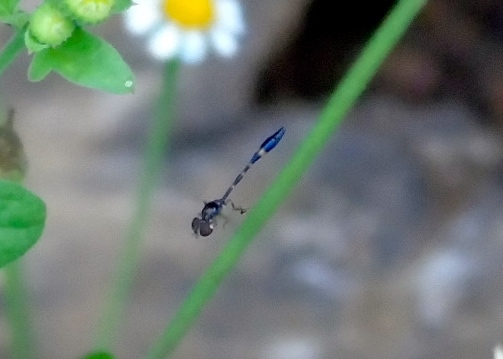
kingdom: Animalia
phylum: Arthropoda
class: Insecta
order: Diptera
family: Syrphidae
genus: Baccha
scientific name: Baccha
